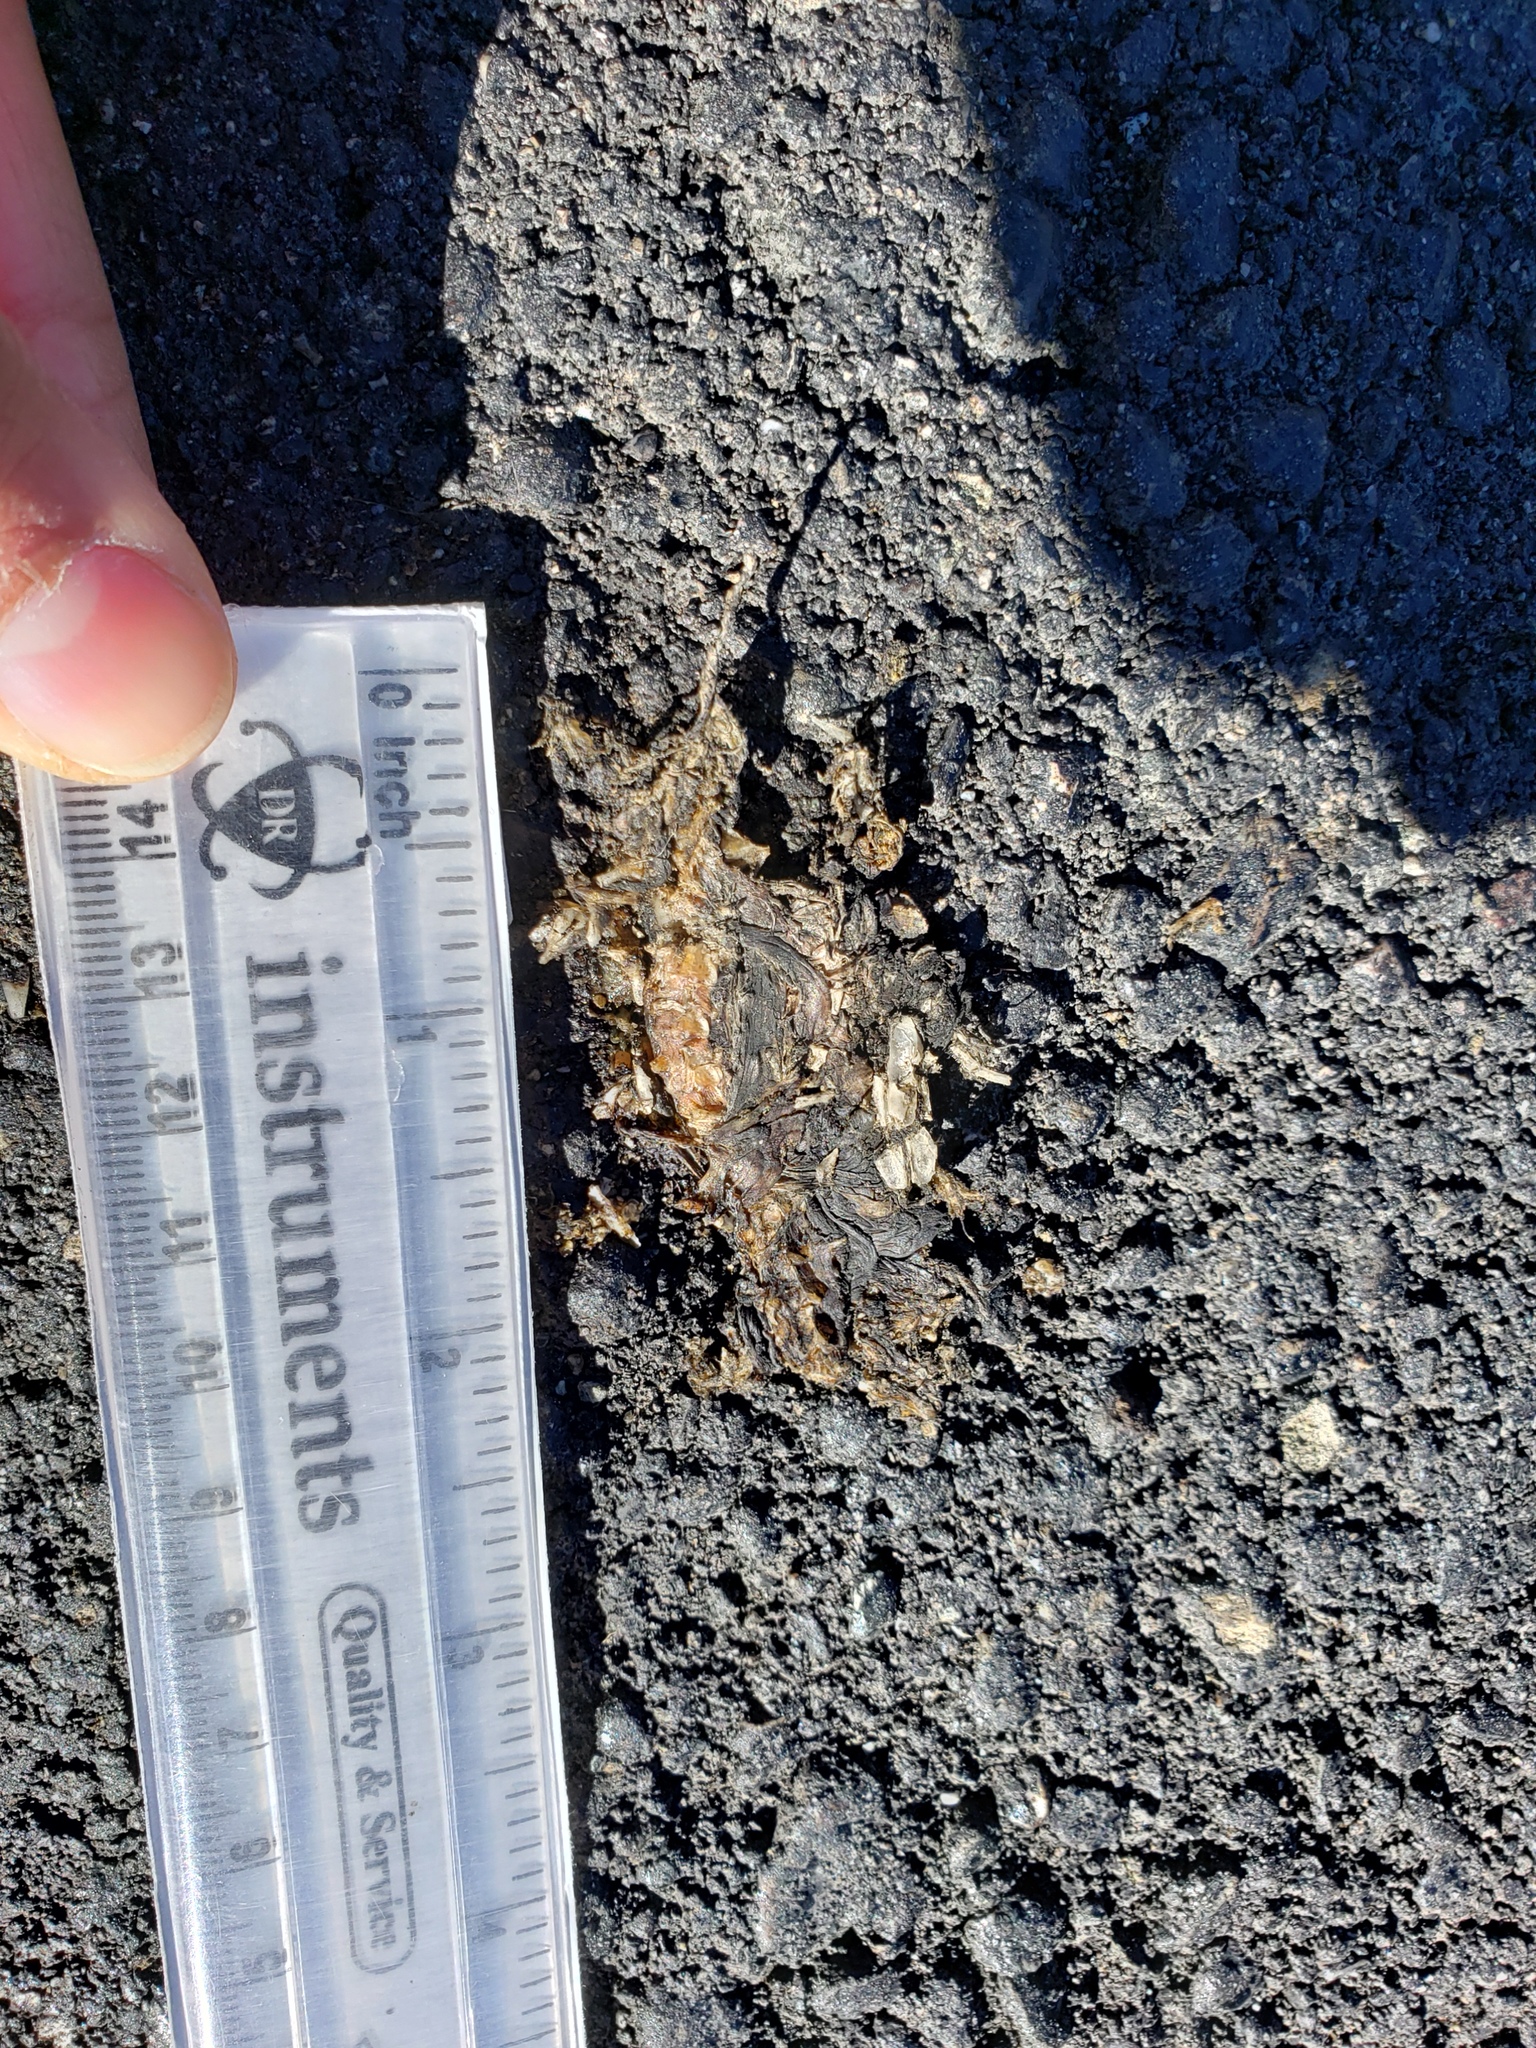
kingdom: Animalia
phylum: Chordata
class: Amphibia
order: Caudata
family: Salamandridae
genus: Taricha
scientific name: Taricha
